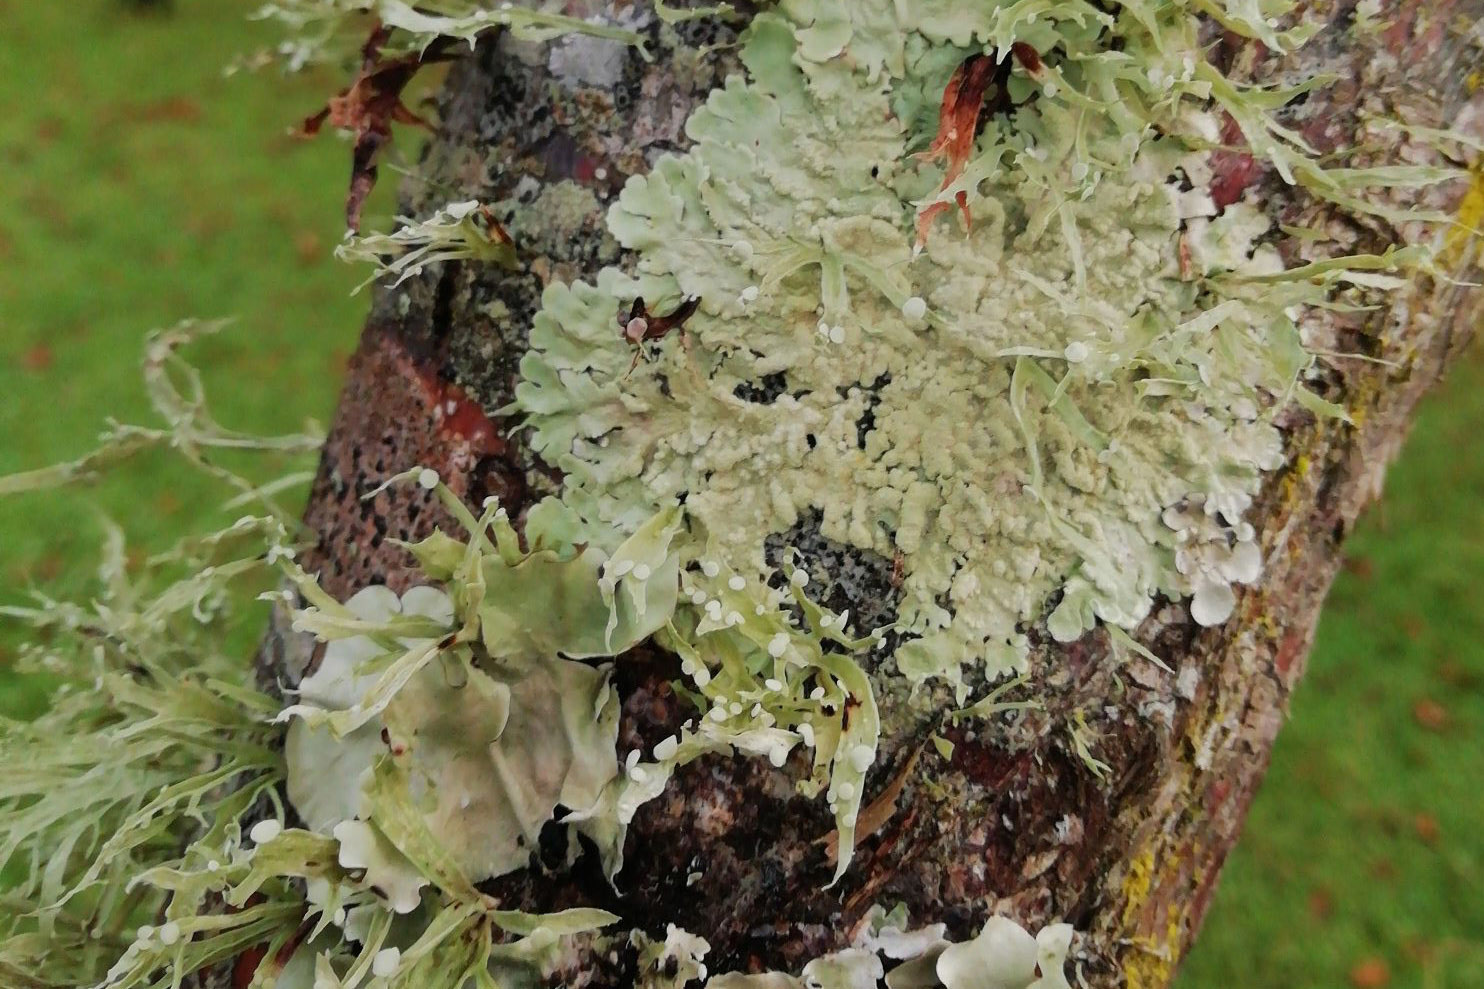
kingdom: Fungi
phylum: Ascomycota
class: Lecanoromycetes
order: Lecanorales
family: Parmeliaceae
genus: Flavoparmelia
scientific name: Flavoparmelia soredians
